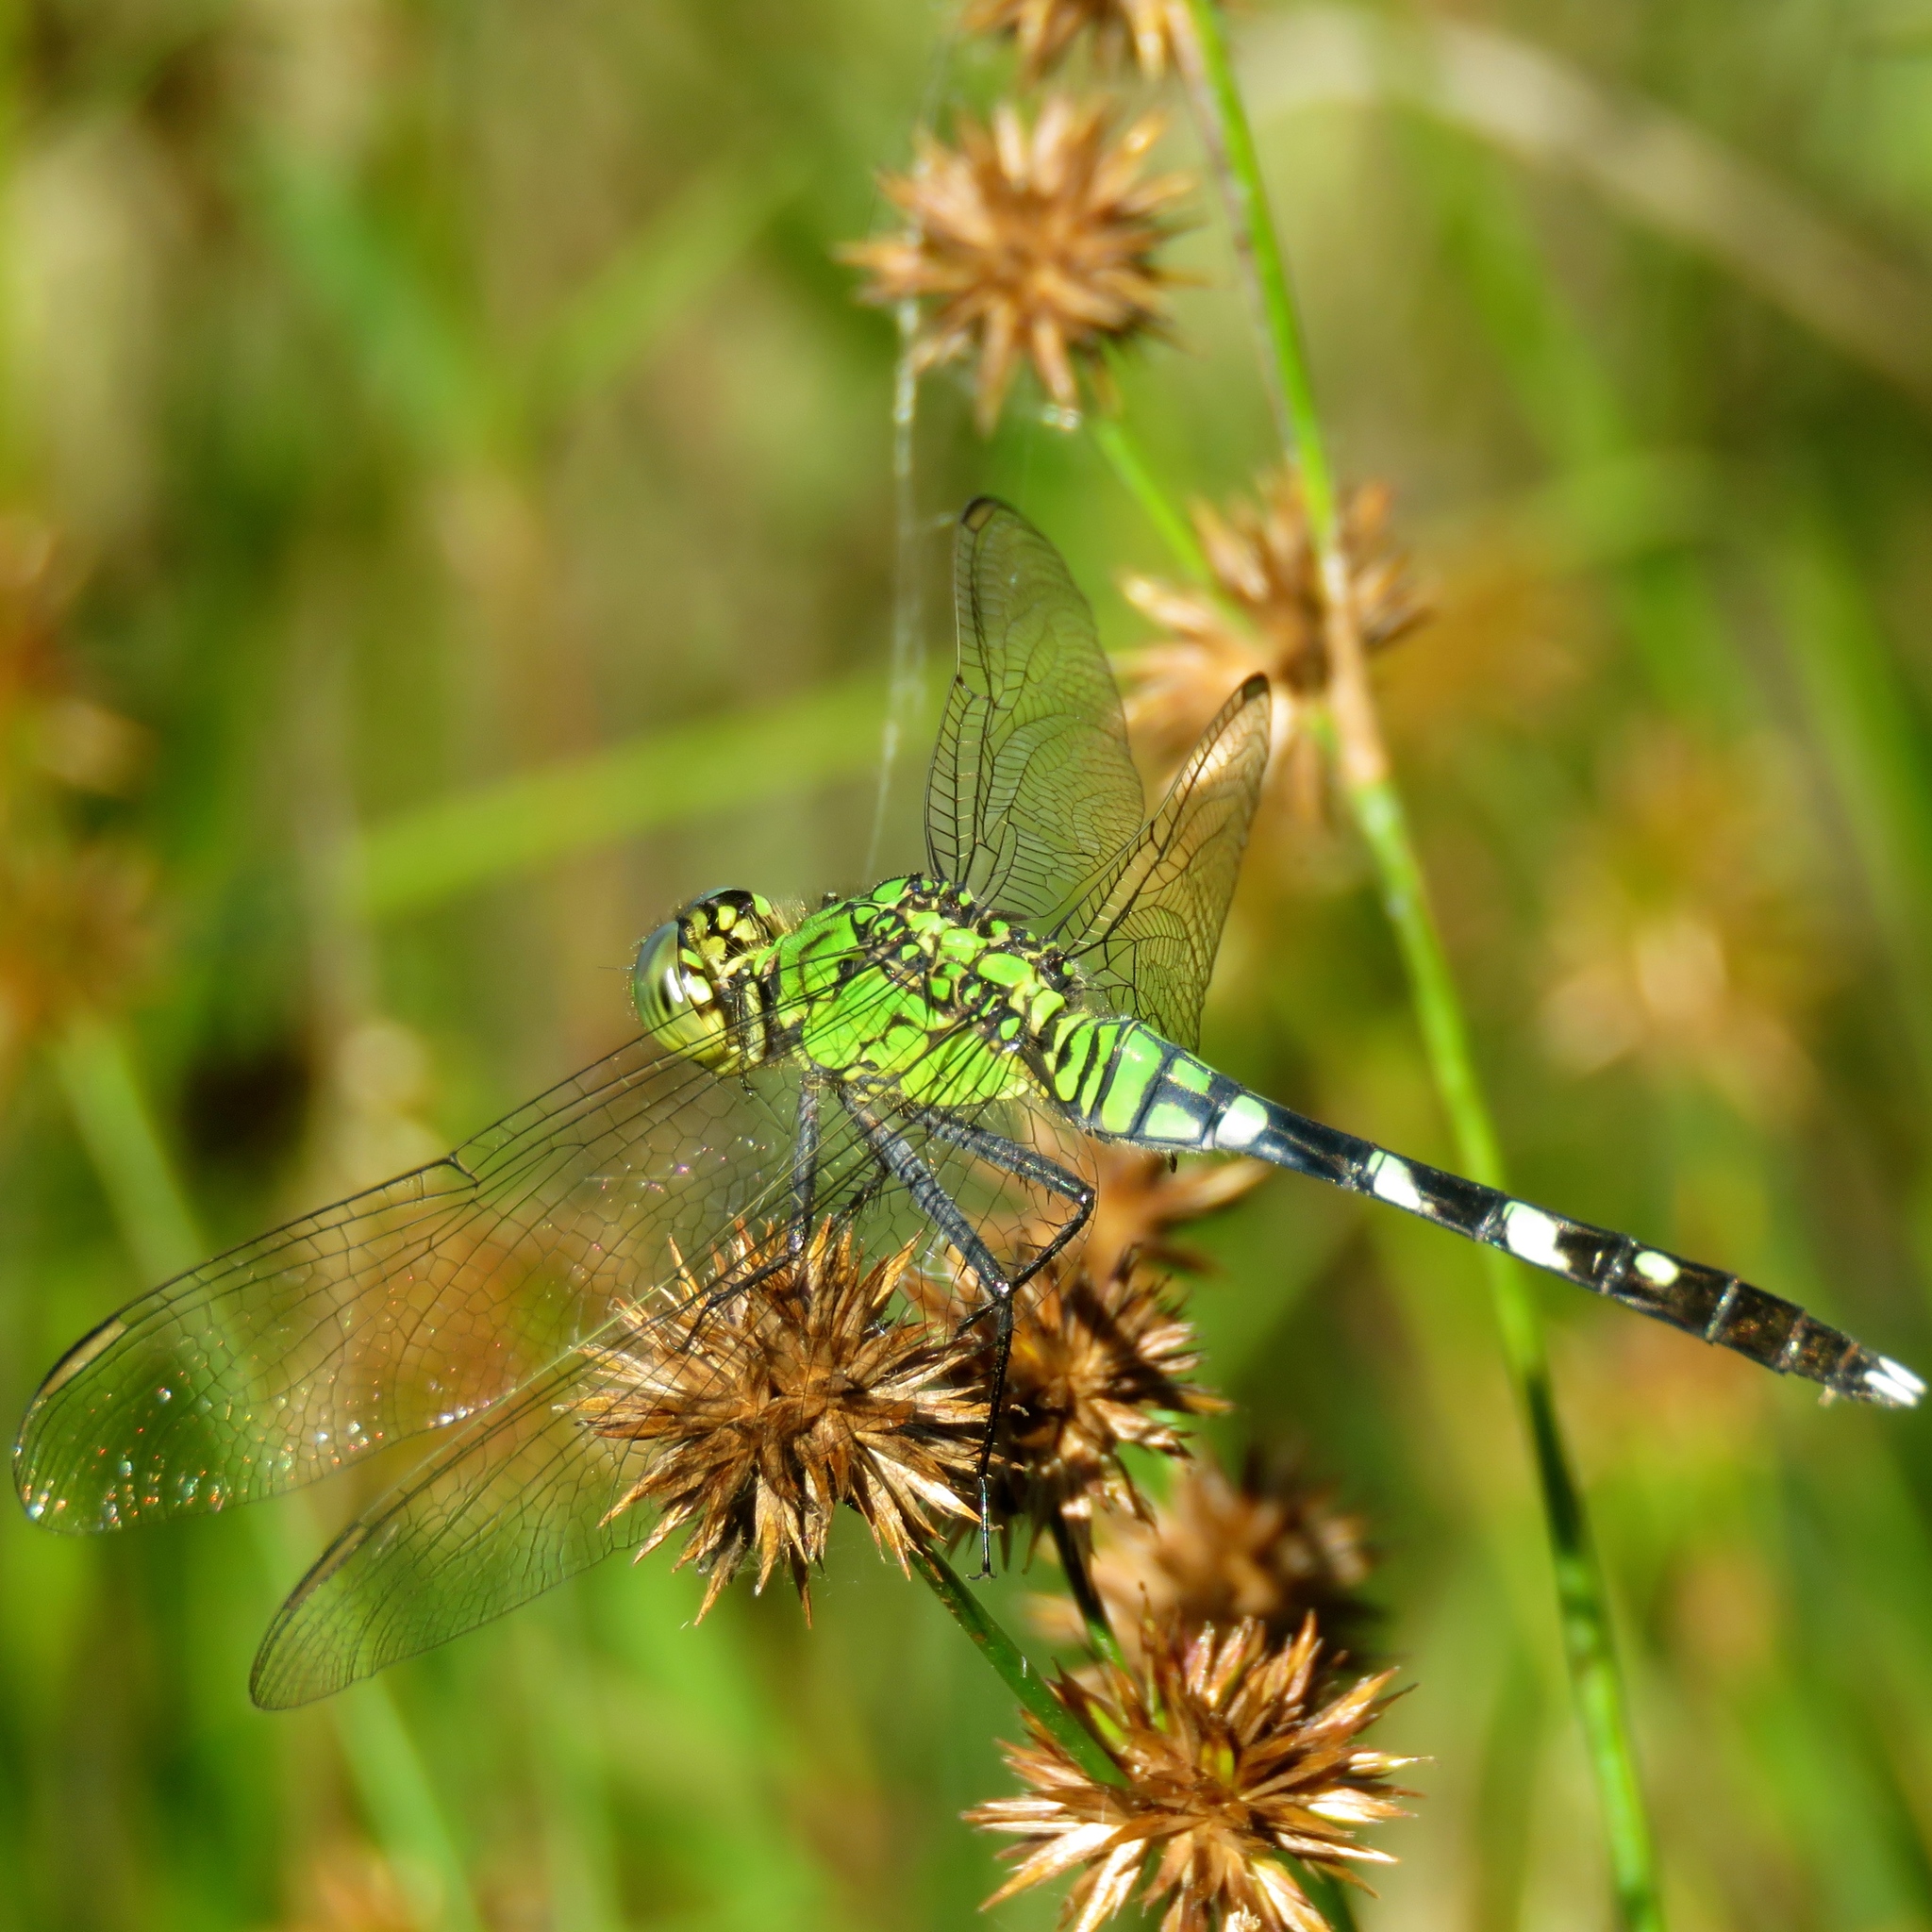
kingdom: Animalia
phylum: Arthropoda
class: Insecta
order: Odonata
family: Libellulidae
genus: Erythemis
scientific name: Erythemis simplicicollis
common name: Eastern pondhawk
